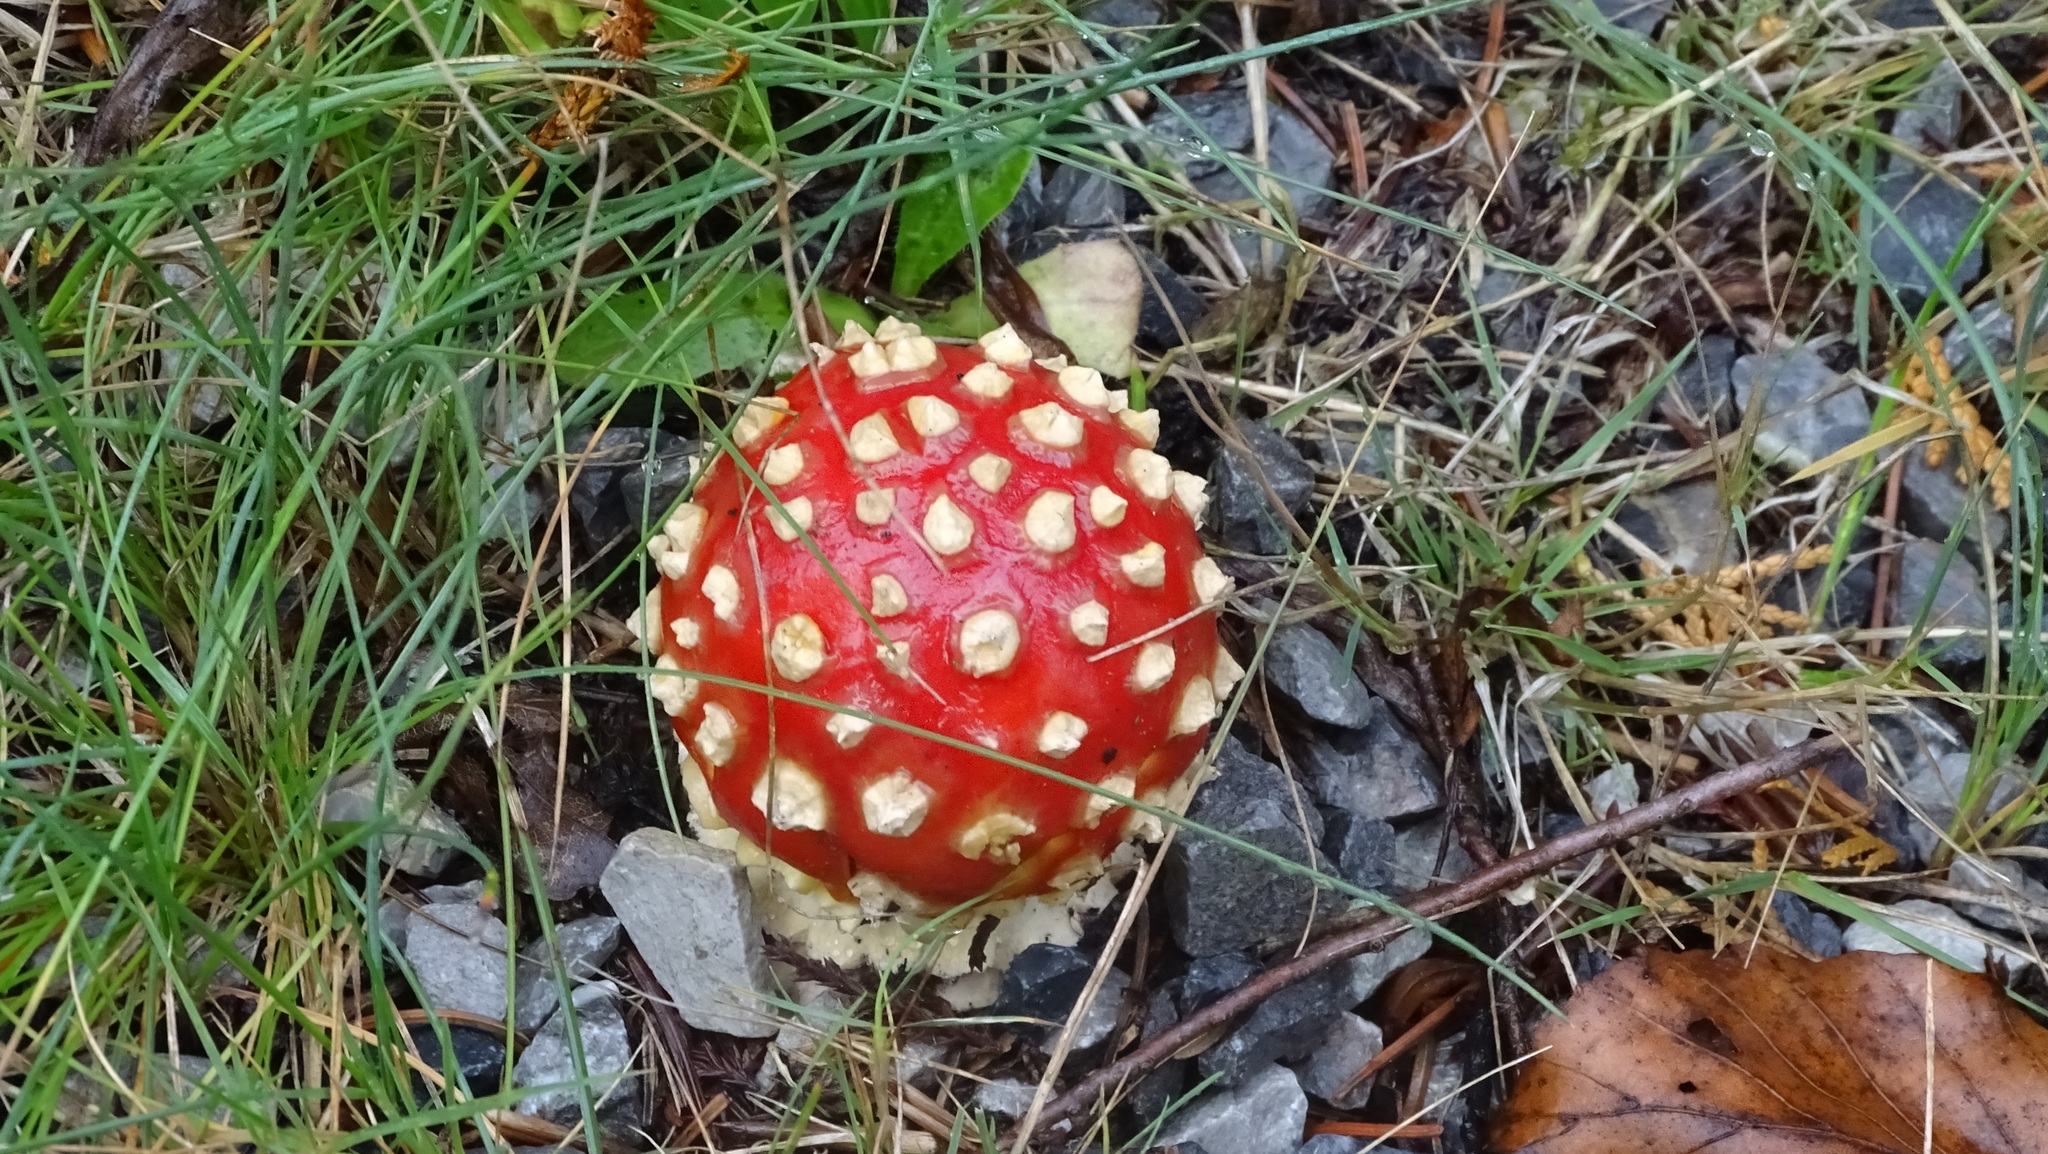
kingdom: Fungi
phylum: Basidiomycota
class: Agaricomycetes
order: Agaricales
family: Amanitaceae
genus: Amanita
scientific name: Amanita muscaria
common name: Fly agaric
